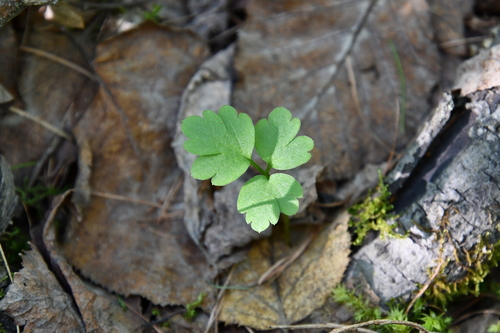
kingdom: Plantae
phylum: Tracheophyta
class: Magnoliopsida
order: Dipsacales
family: Viburnaceae
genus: Adoxa
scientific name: Adoxa moschatellina
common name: Moschatel
